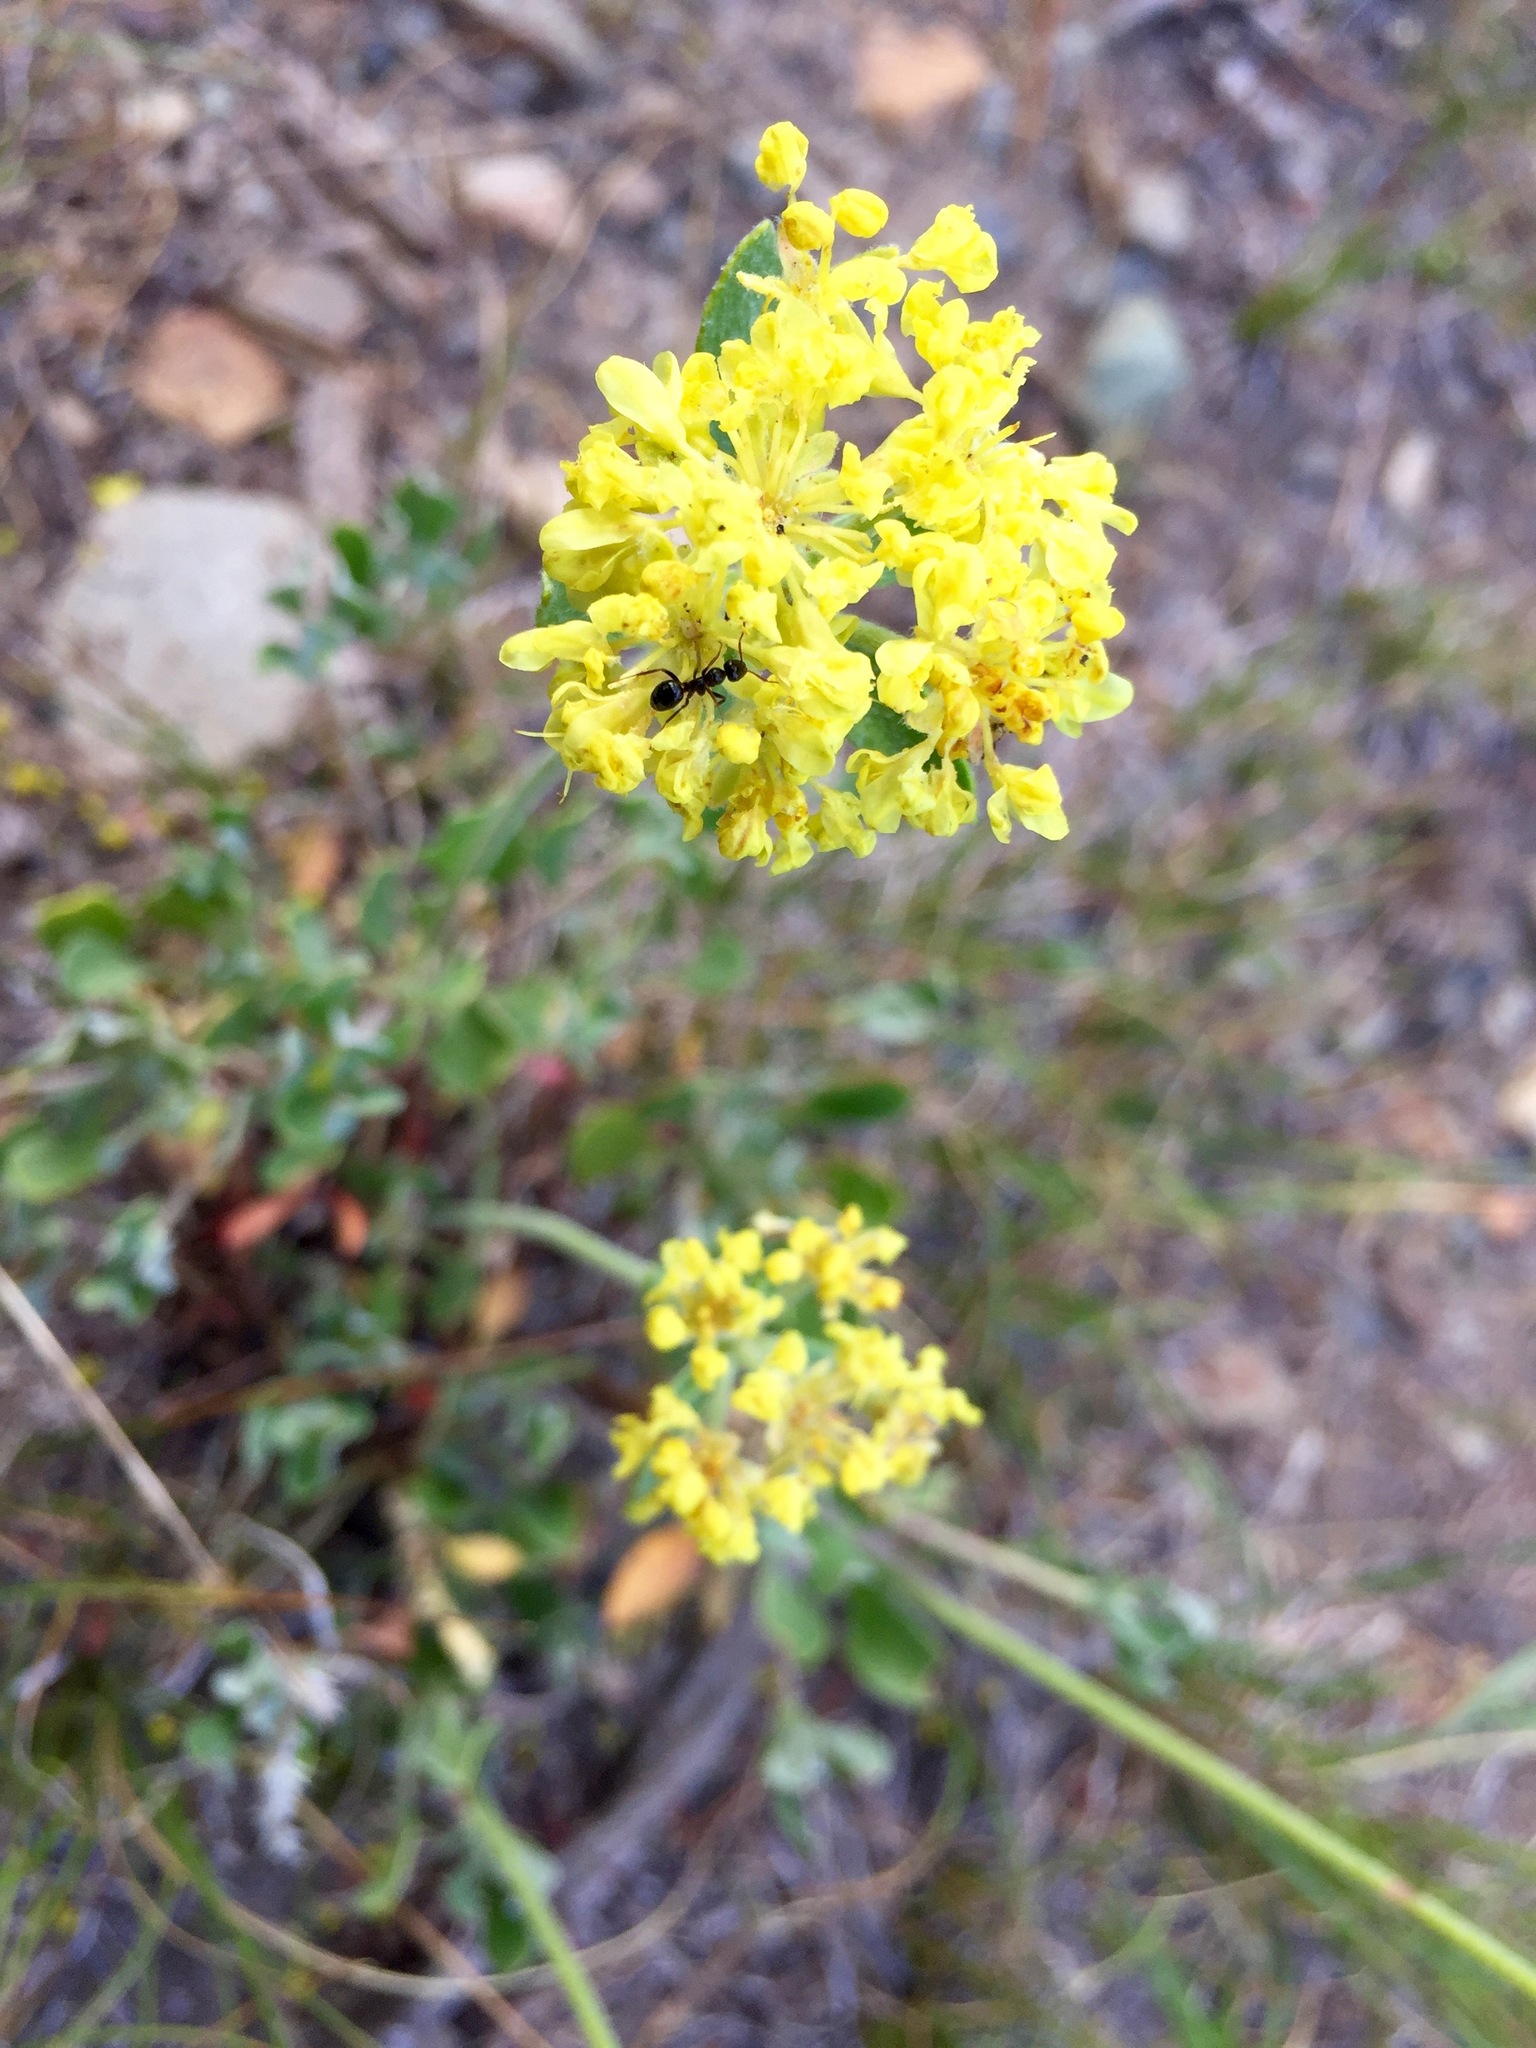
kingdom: Plantae
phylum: Tracheophyta
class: Magnoliopsida
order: Caryophyllales
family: Polygonaceae
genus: Eriogonum
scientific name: Eriogonum umbellatum
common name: Sulfur-buckwheat
